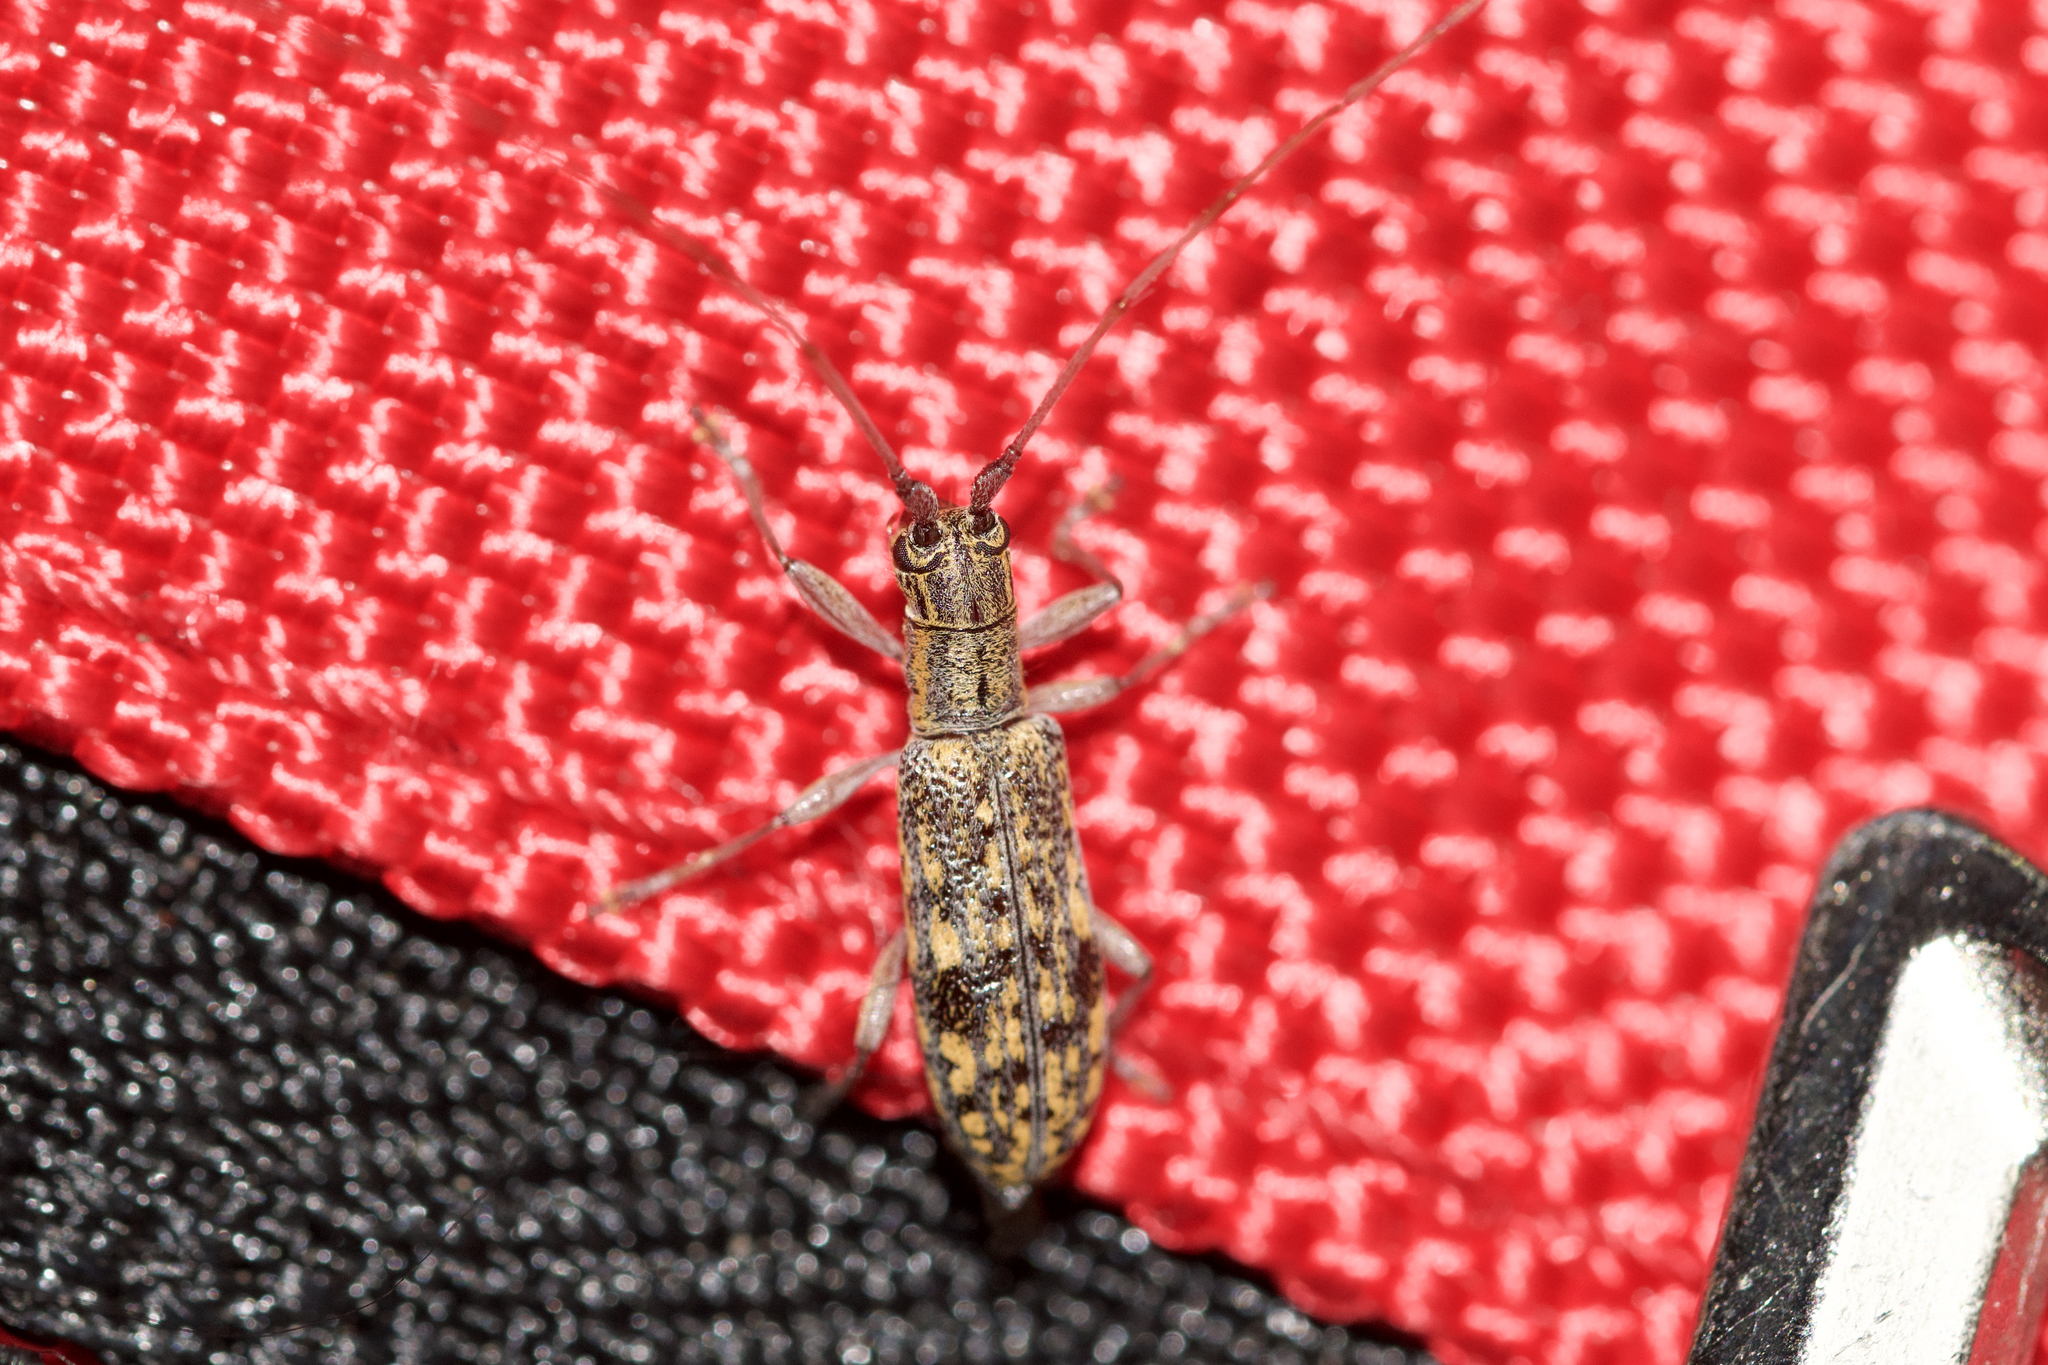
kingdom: Animalia
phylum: Arthropoda
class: Insecta
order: Coleoptera
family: Cerambycidae
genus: Dorcaschema
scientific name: Dorcaschema alternatum
